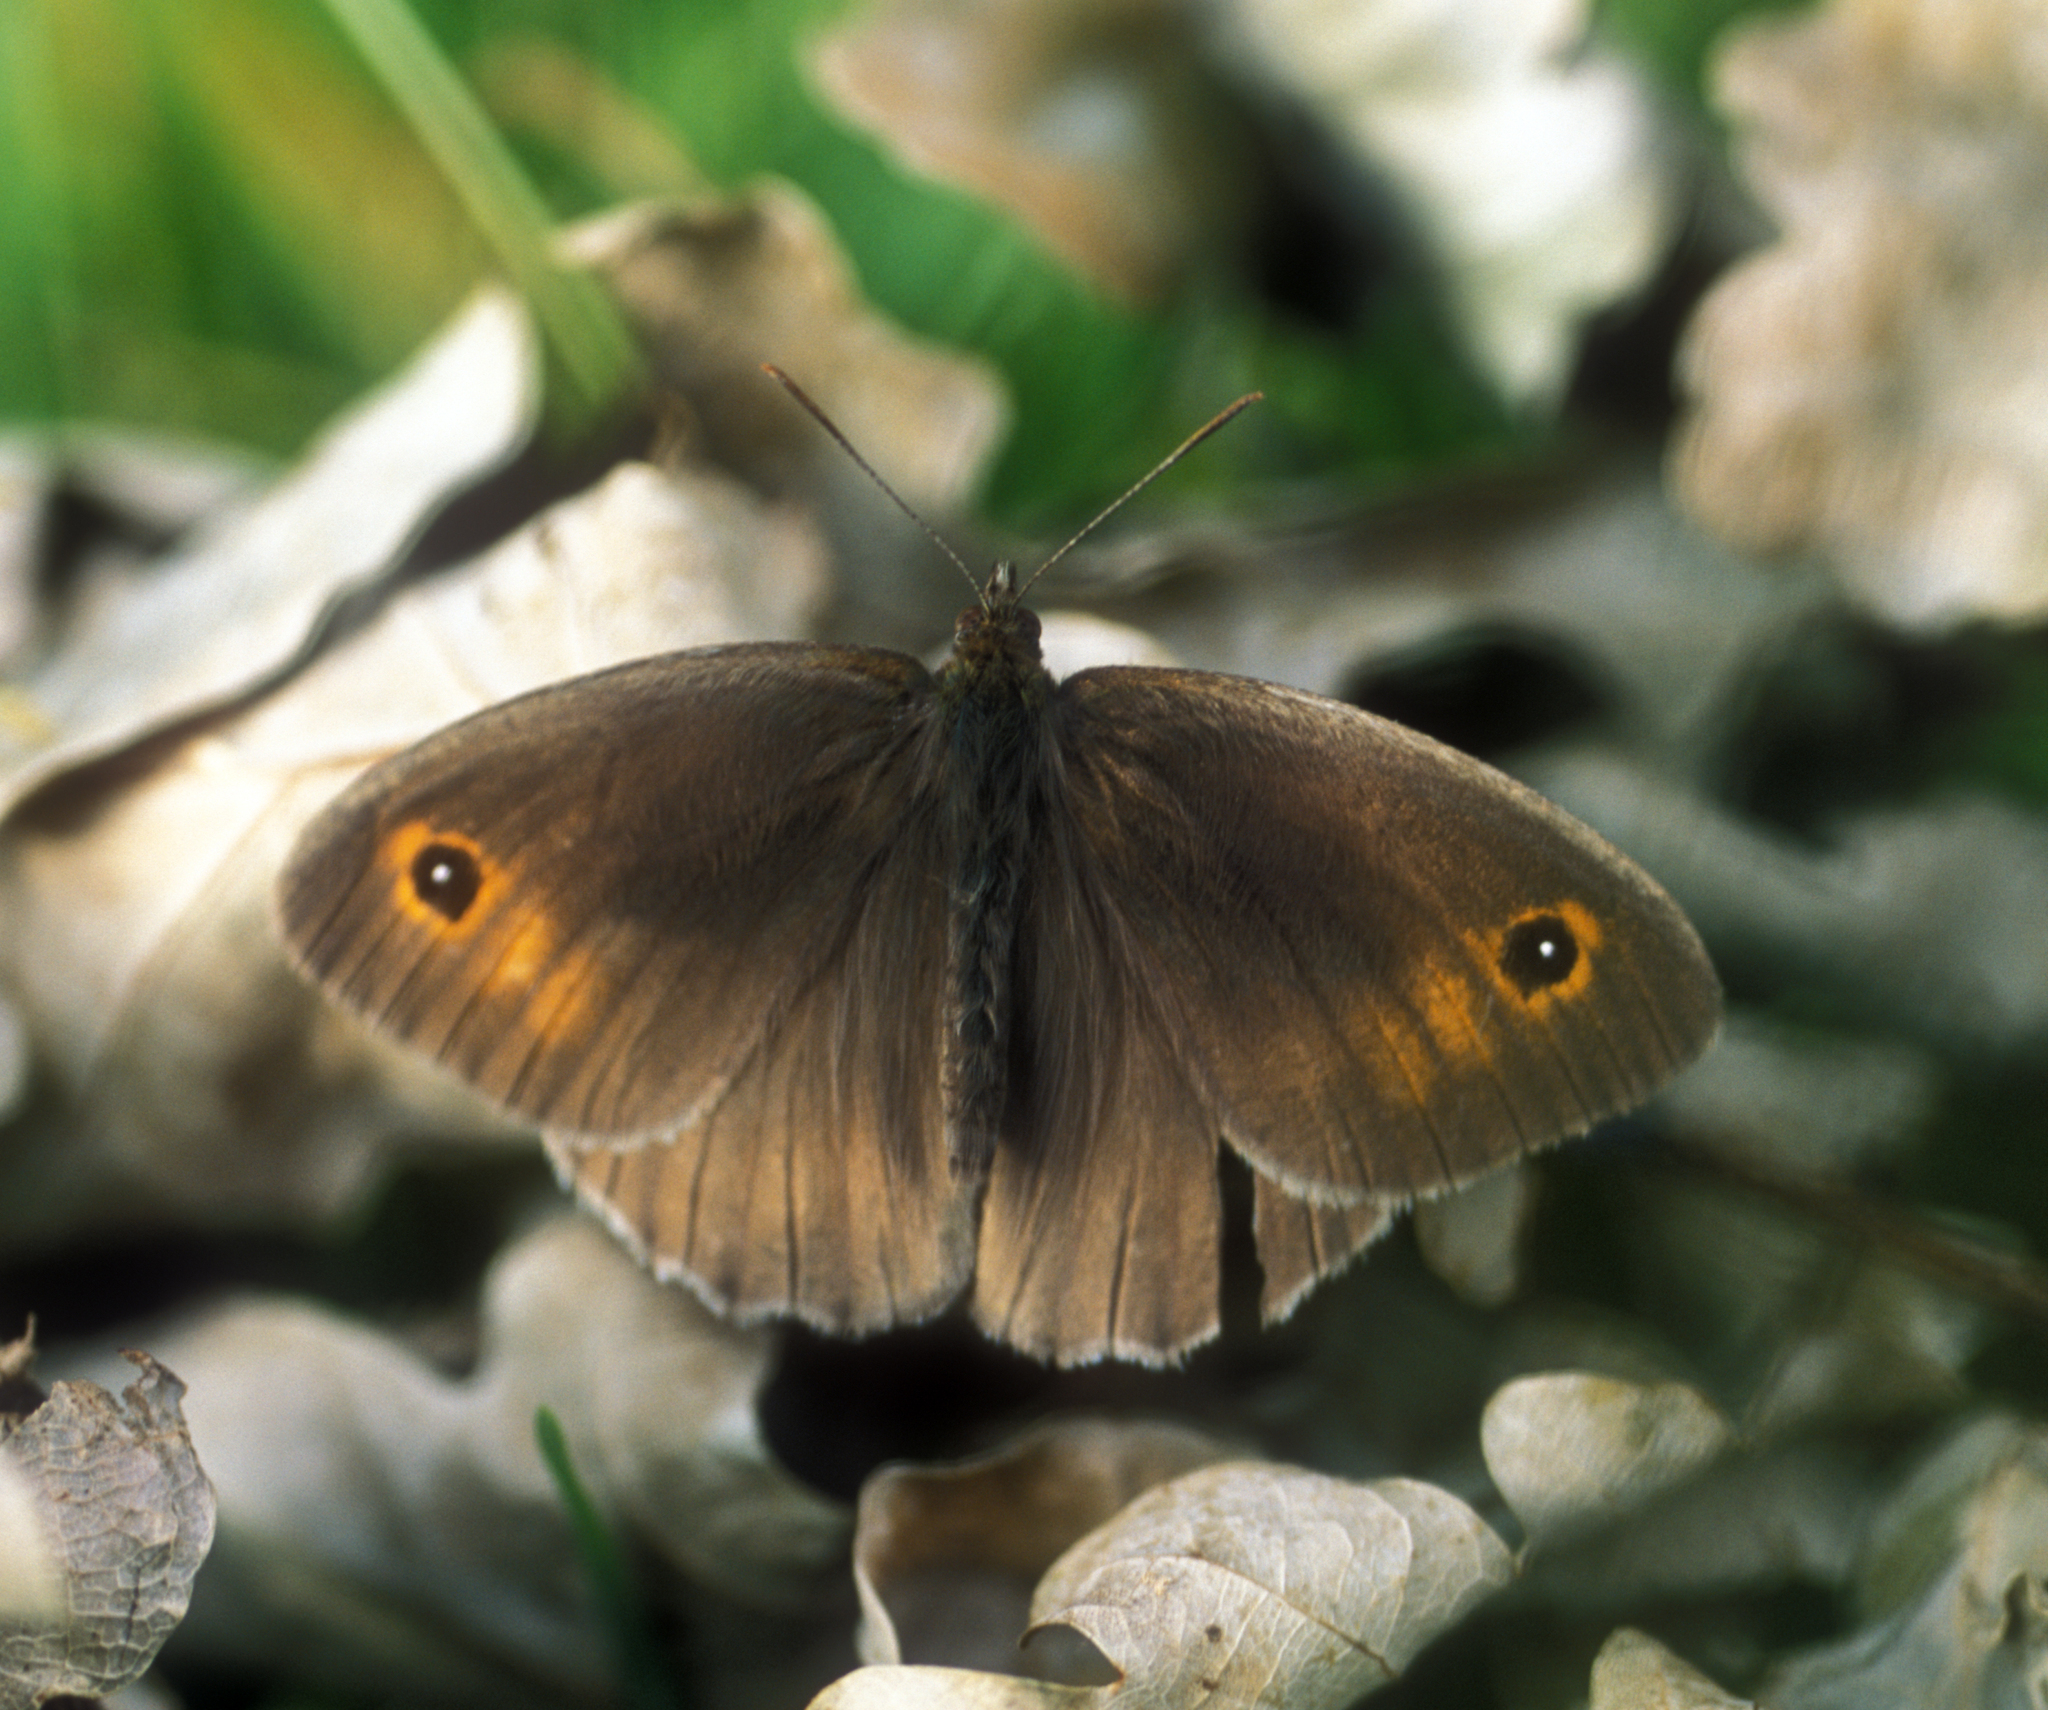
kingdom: Animalia
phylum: Arthropoda
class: Insecta
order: Lepidoptera
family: Nymphalidae
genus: Maniola
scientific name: Maniola jurtina
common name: Meadow brown
